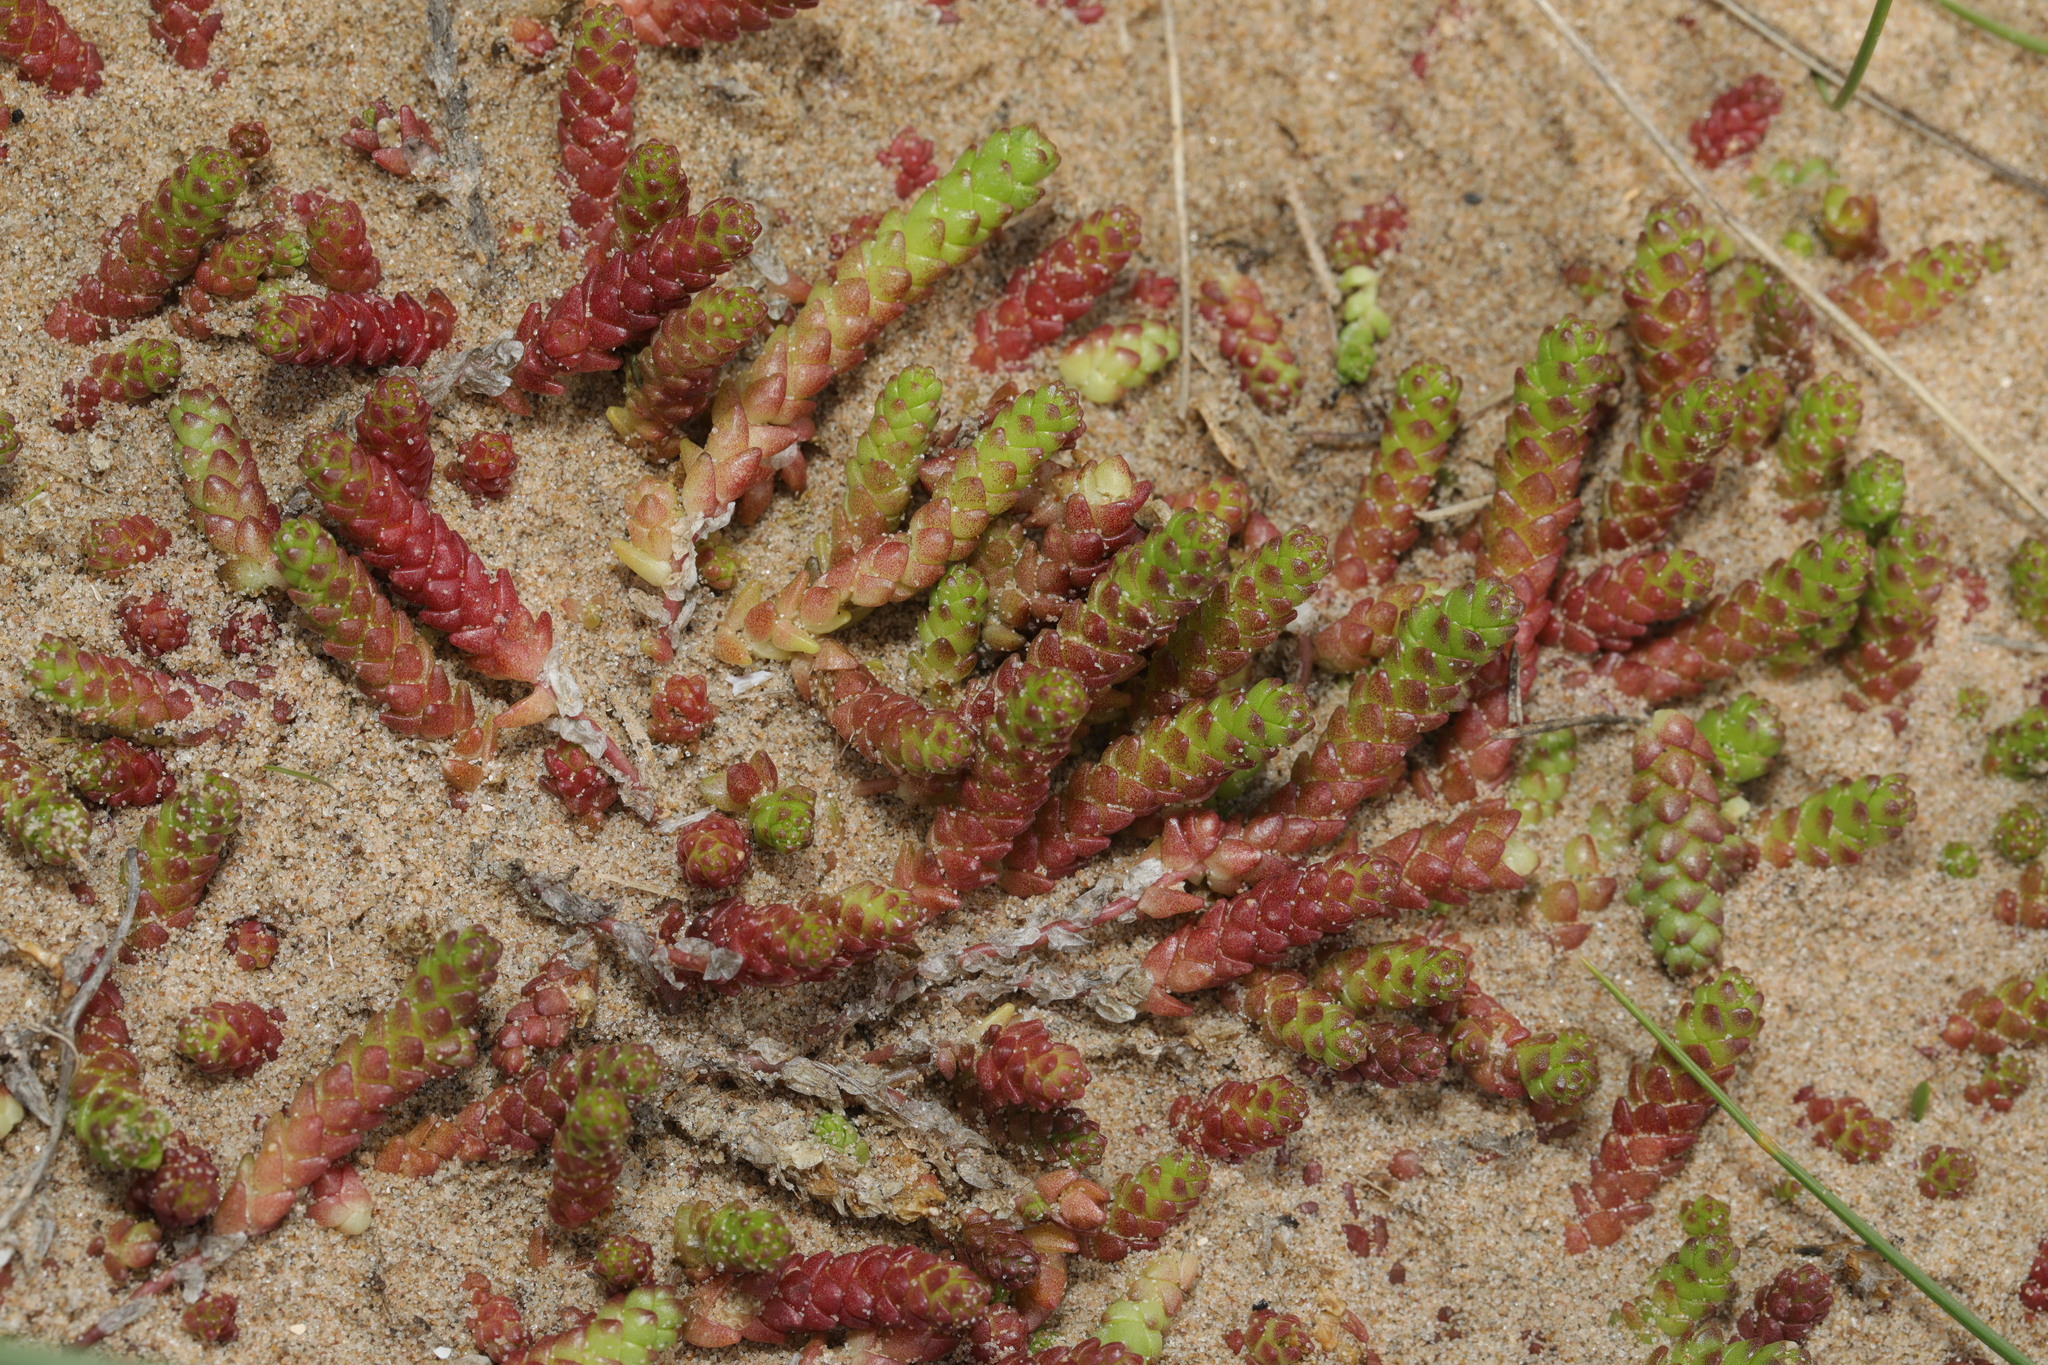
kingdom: Plantae
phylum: Tracheophyta
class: Magnoliopsida
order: Saxifragales
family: Crassulaceae
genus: Sedum
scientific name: Sedum acre
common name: Biting stonecrop
